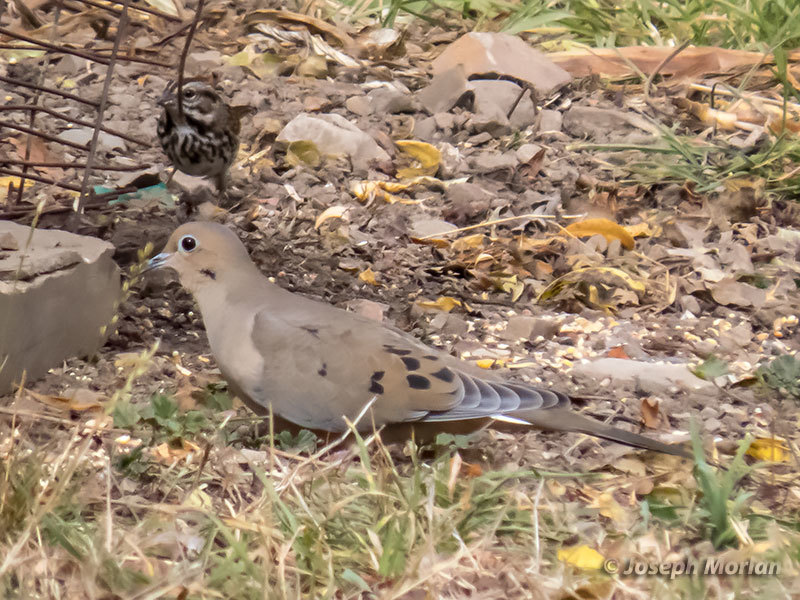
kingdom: Animalia
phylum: Chordata
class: Aves
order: Columbiformes
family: Columbidae
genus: Zenaida
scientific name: Zenaida macroura
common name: Mourning dove
